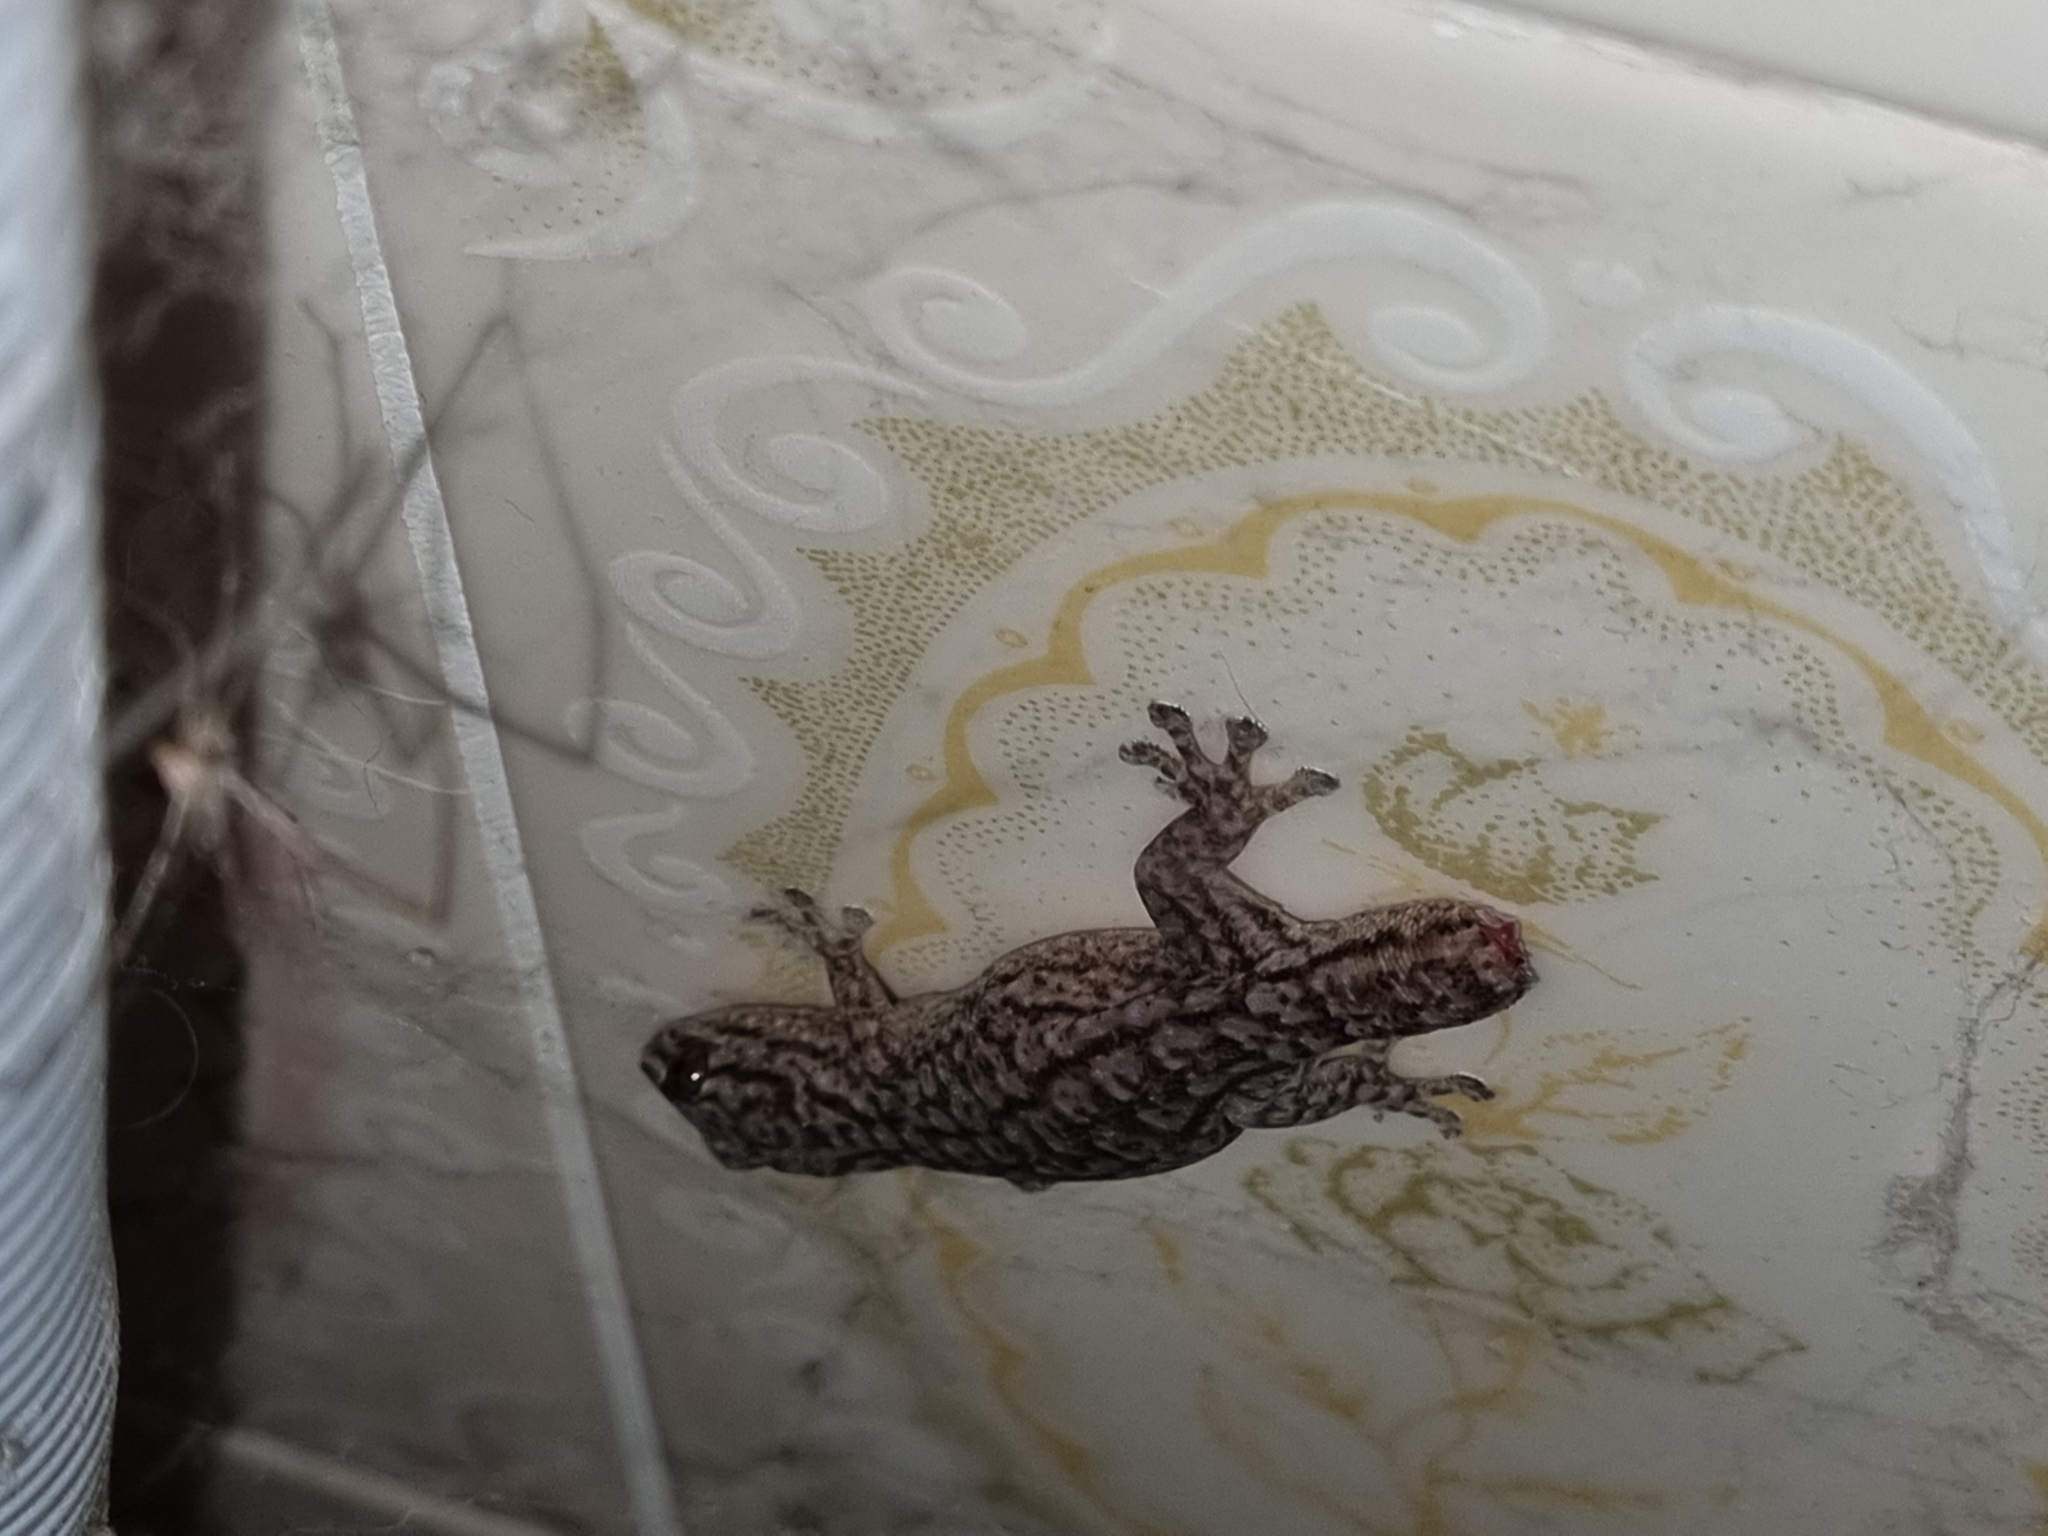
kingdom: Animalia
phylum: Chordata
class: Squamata
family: Gekkonidae
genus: Gehyra
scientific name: Gehyra versicolor
